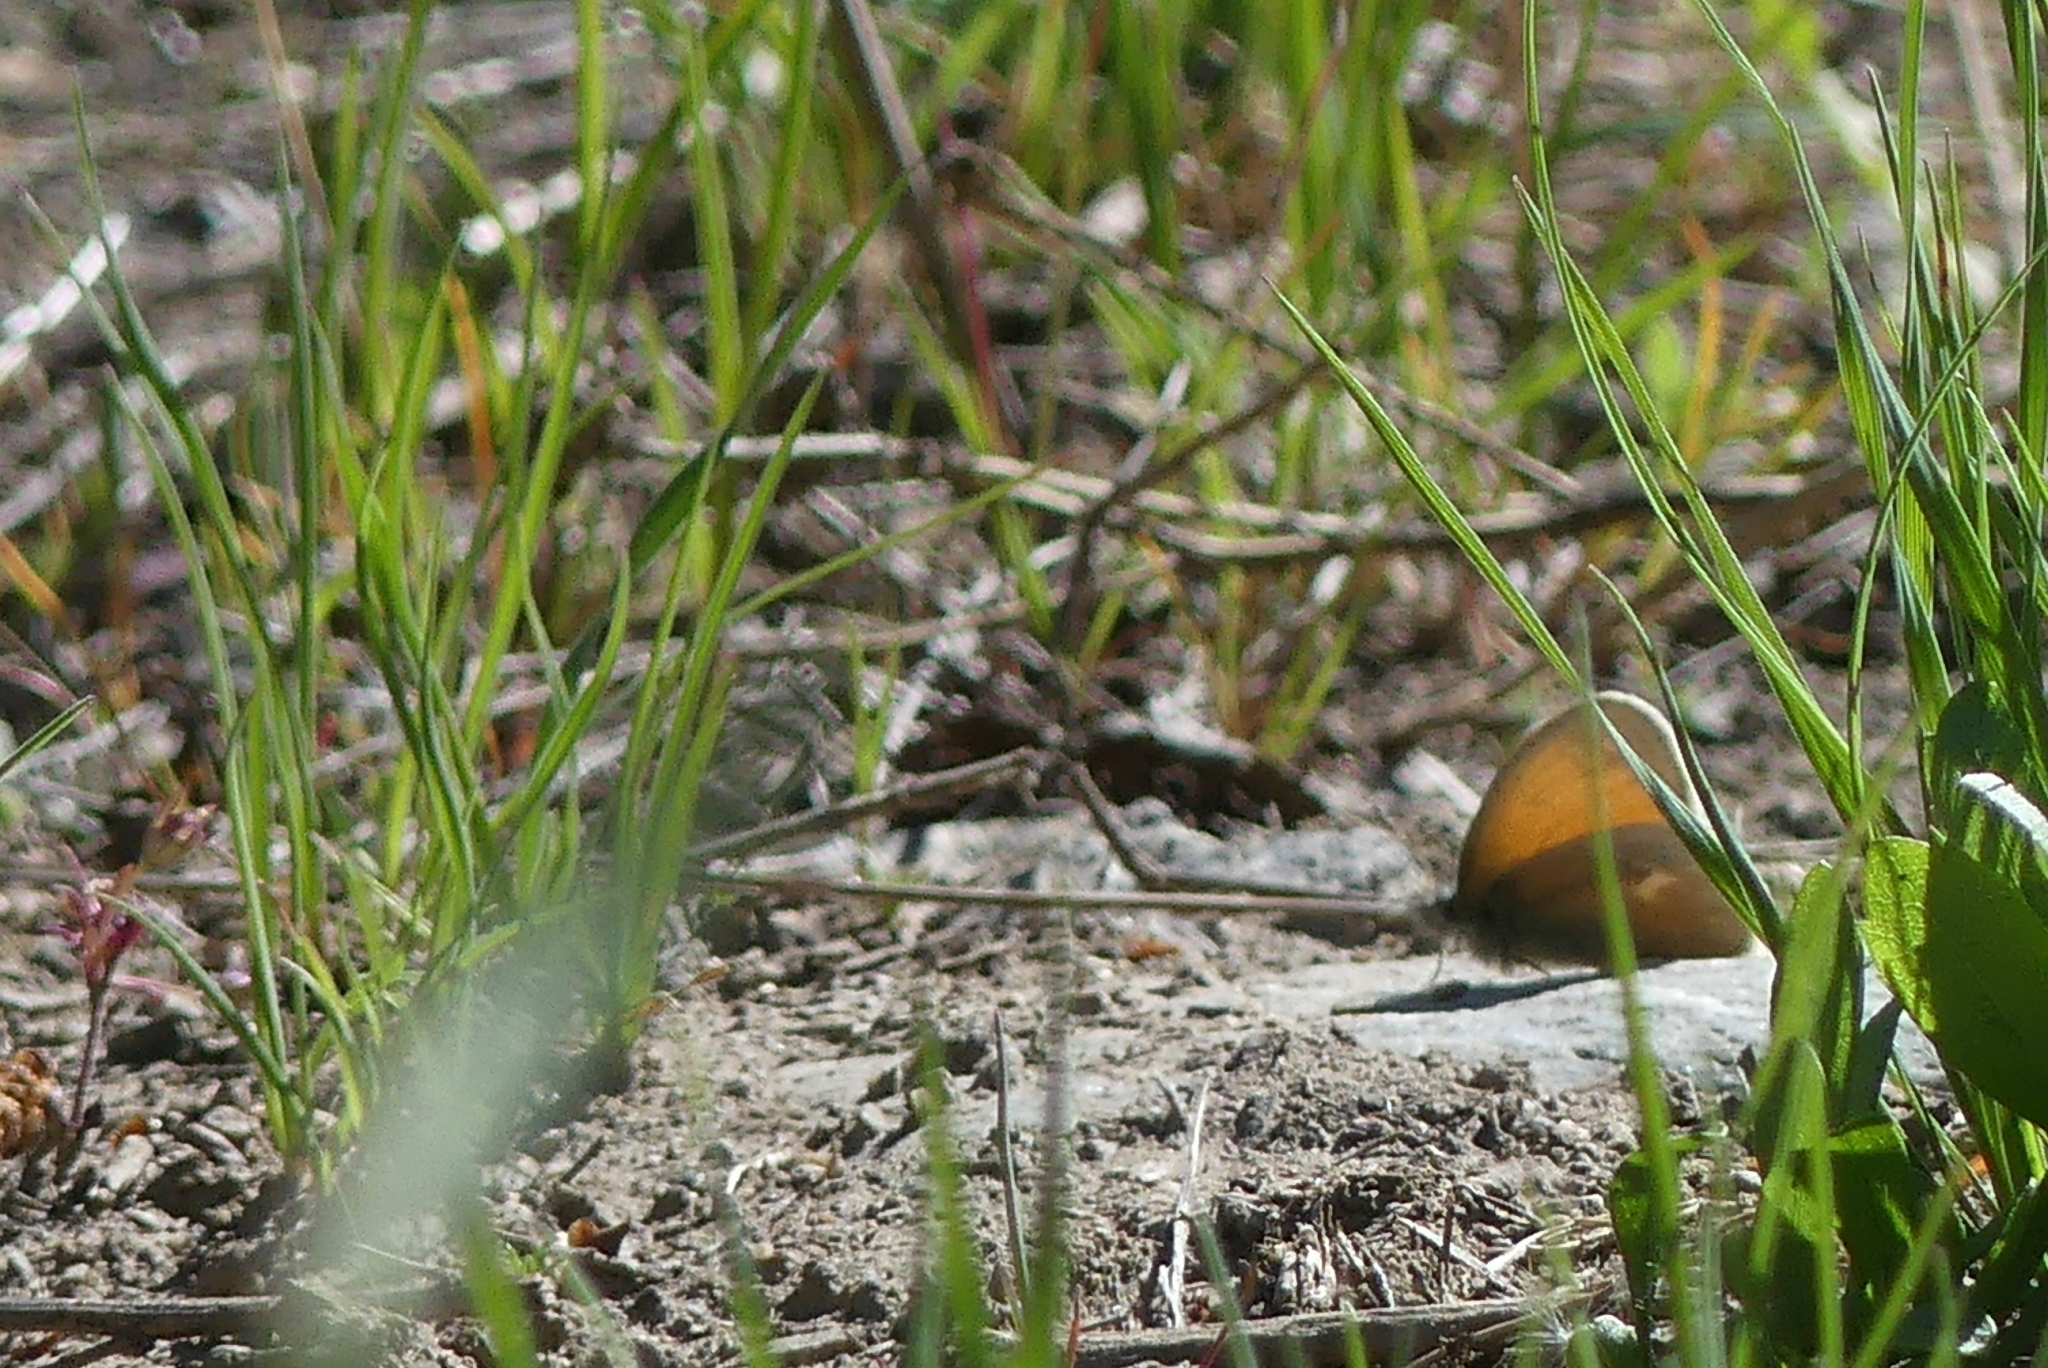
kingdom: Animalia
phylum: Arthropoda
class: Insecta
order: Lepidoptera
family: Nymphalidae
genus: Coenonympha
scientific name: Coenonympha california
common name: Common ringlet
